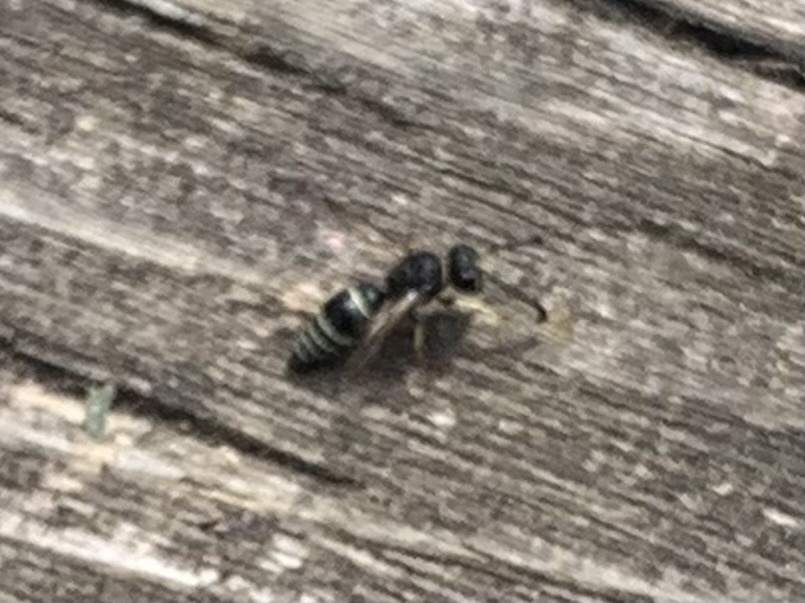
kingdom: Animalia
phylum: Arthropoda
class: Insecta
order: Hymenoptera
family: Vespidae
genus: Ancistrocerus
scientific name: Ancistrocerus albophaleratus
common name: White-banded potter wasp
